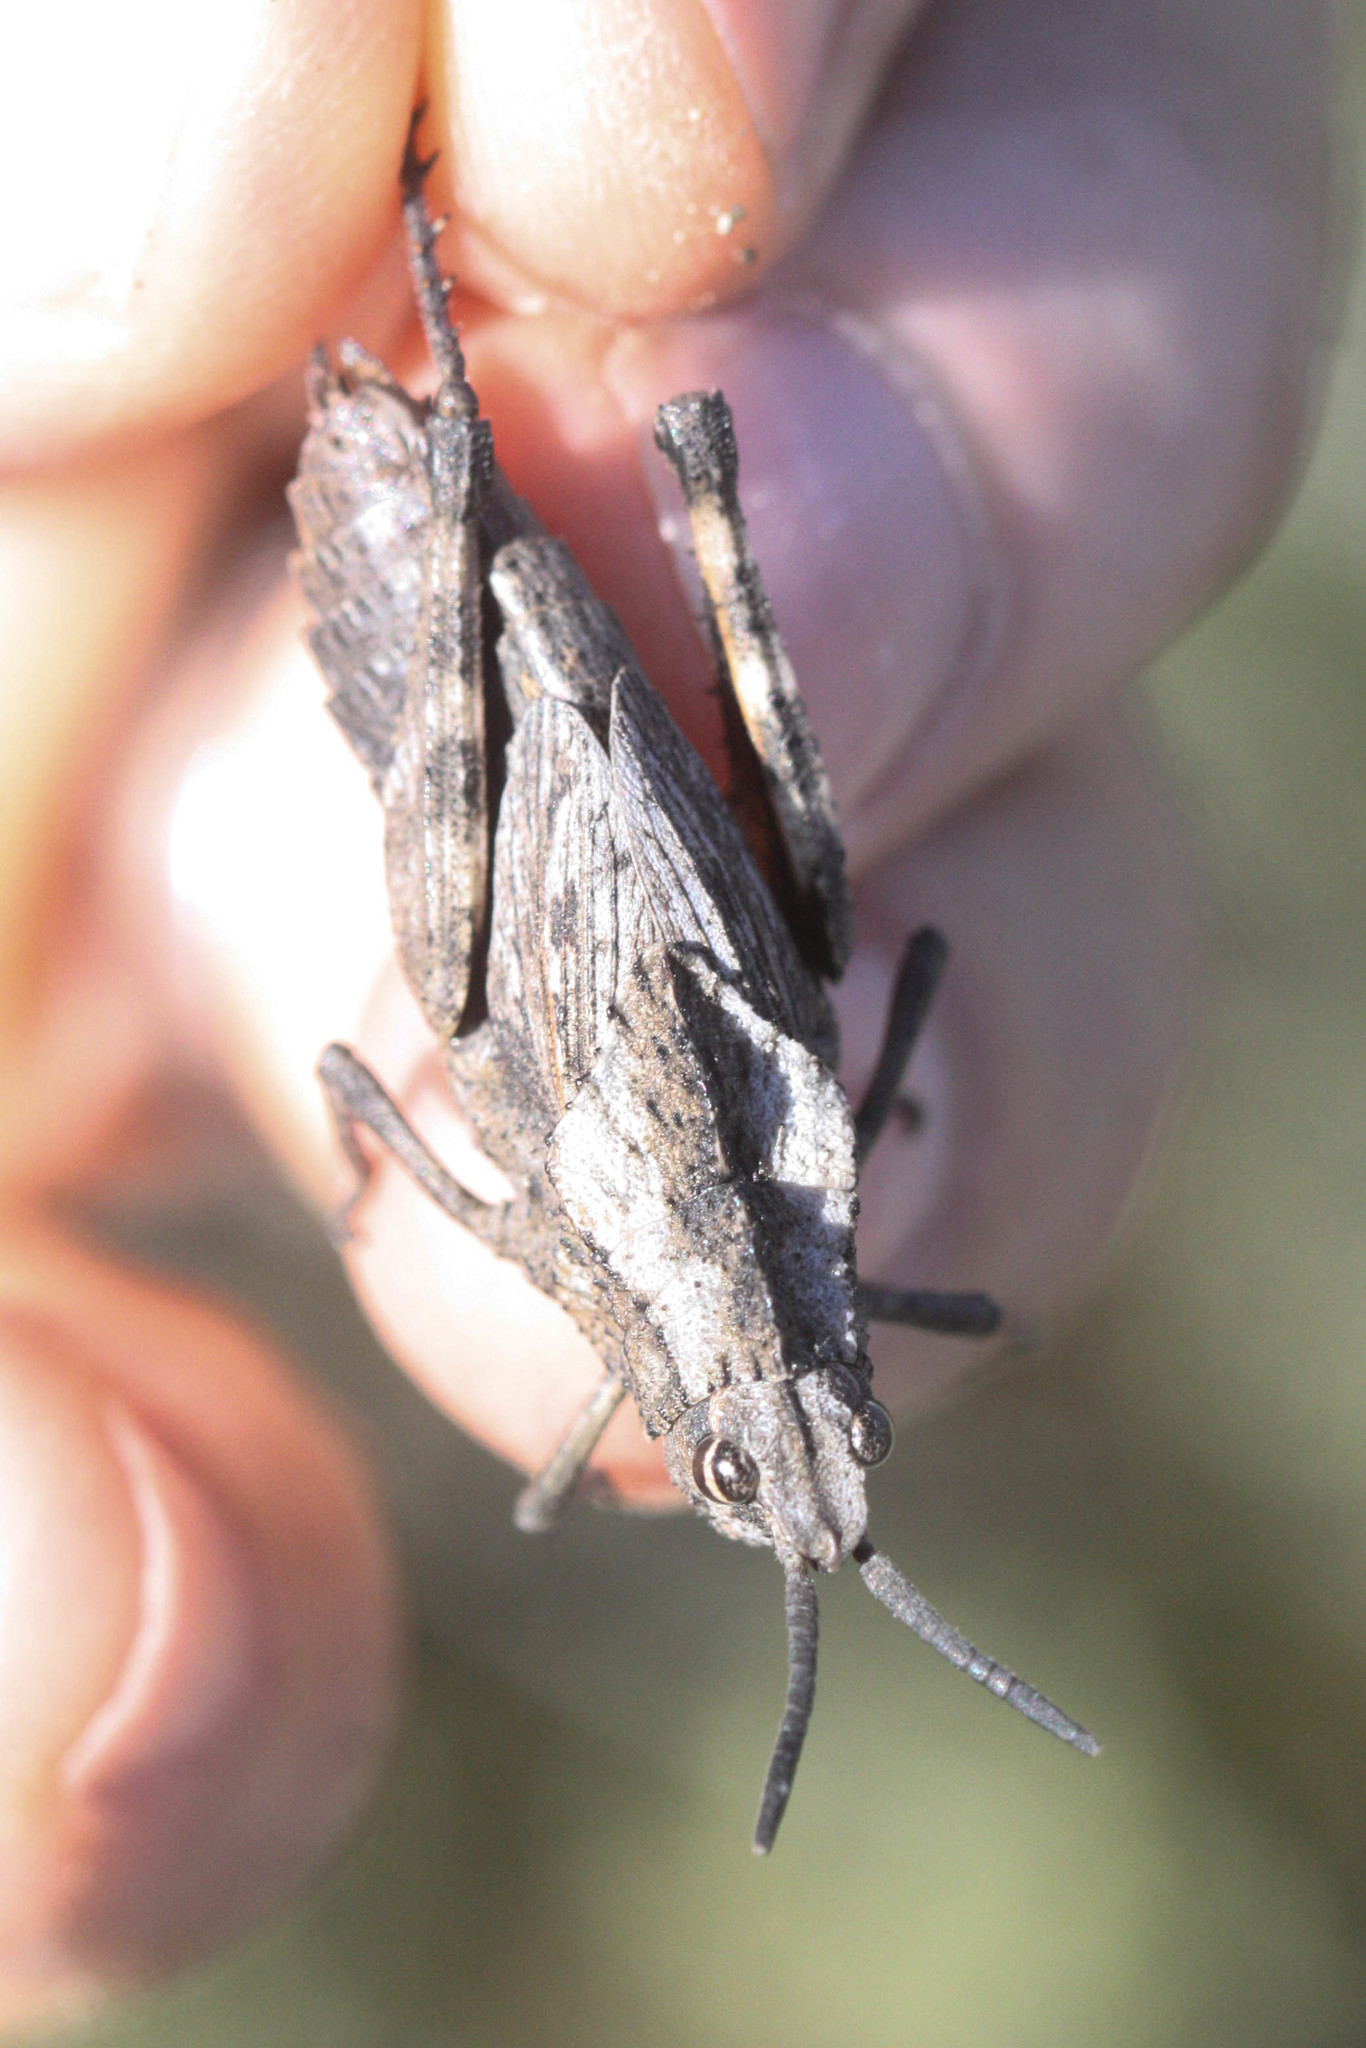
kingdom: Animalia
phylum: Arthropoda
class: Insecta
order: Orthoptera
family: Romaleidae
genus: Dracotettix
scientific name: Dracotettix monstrosus
